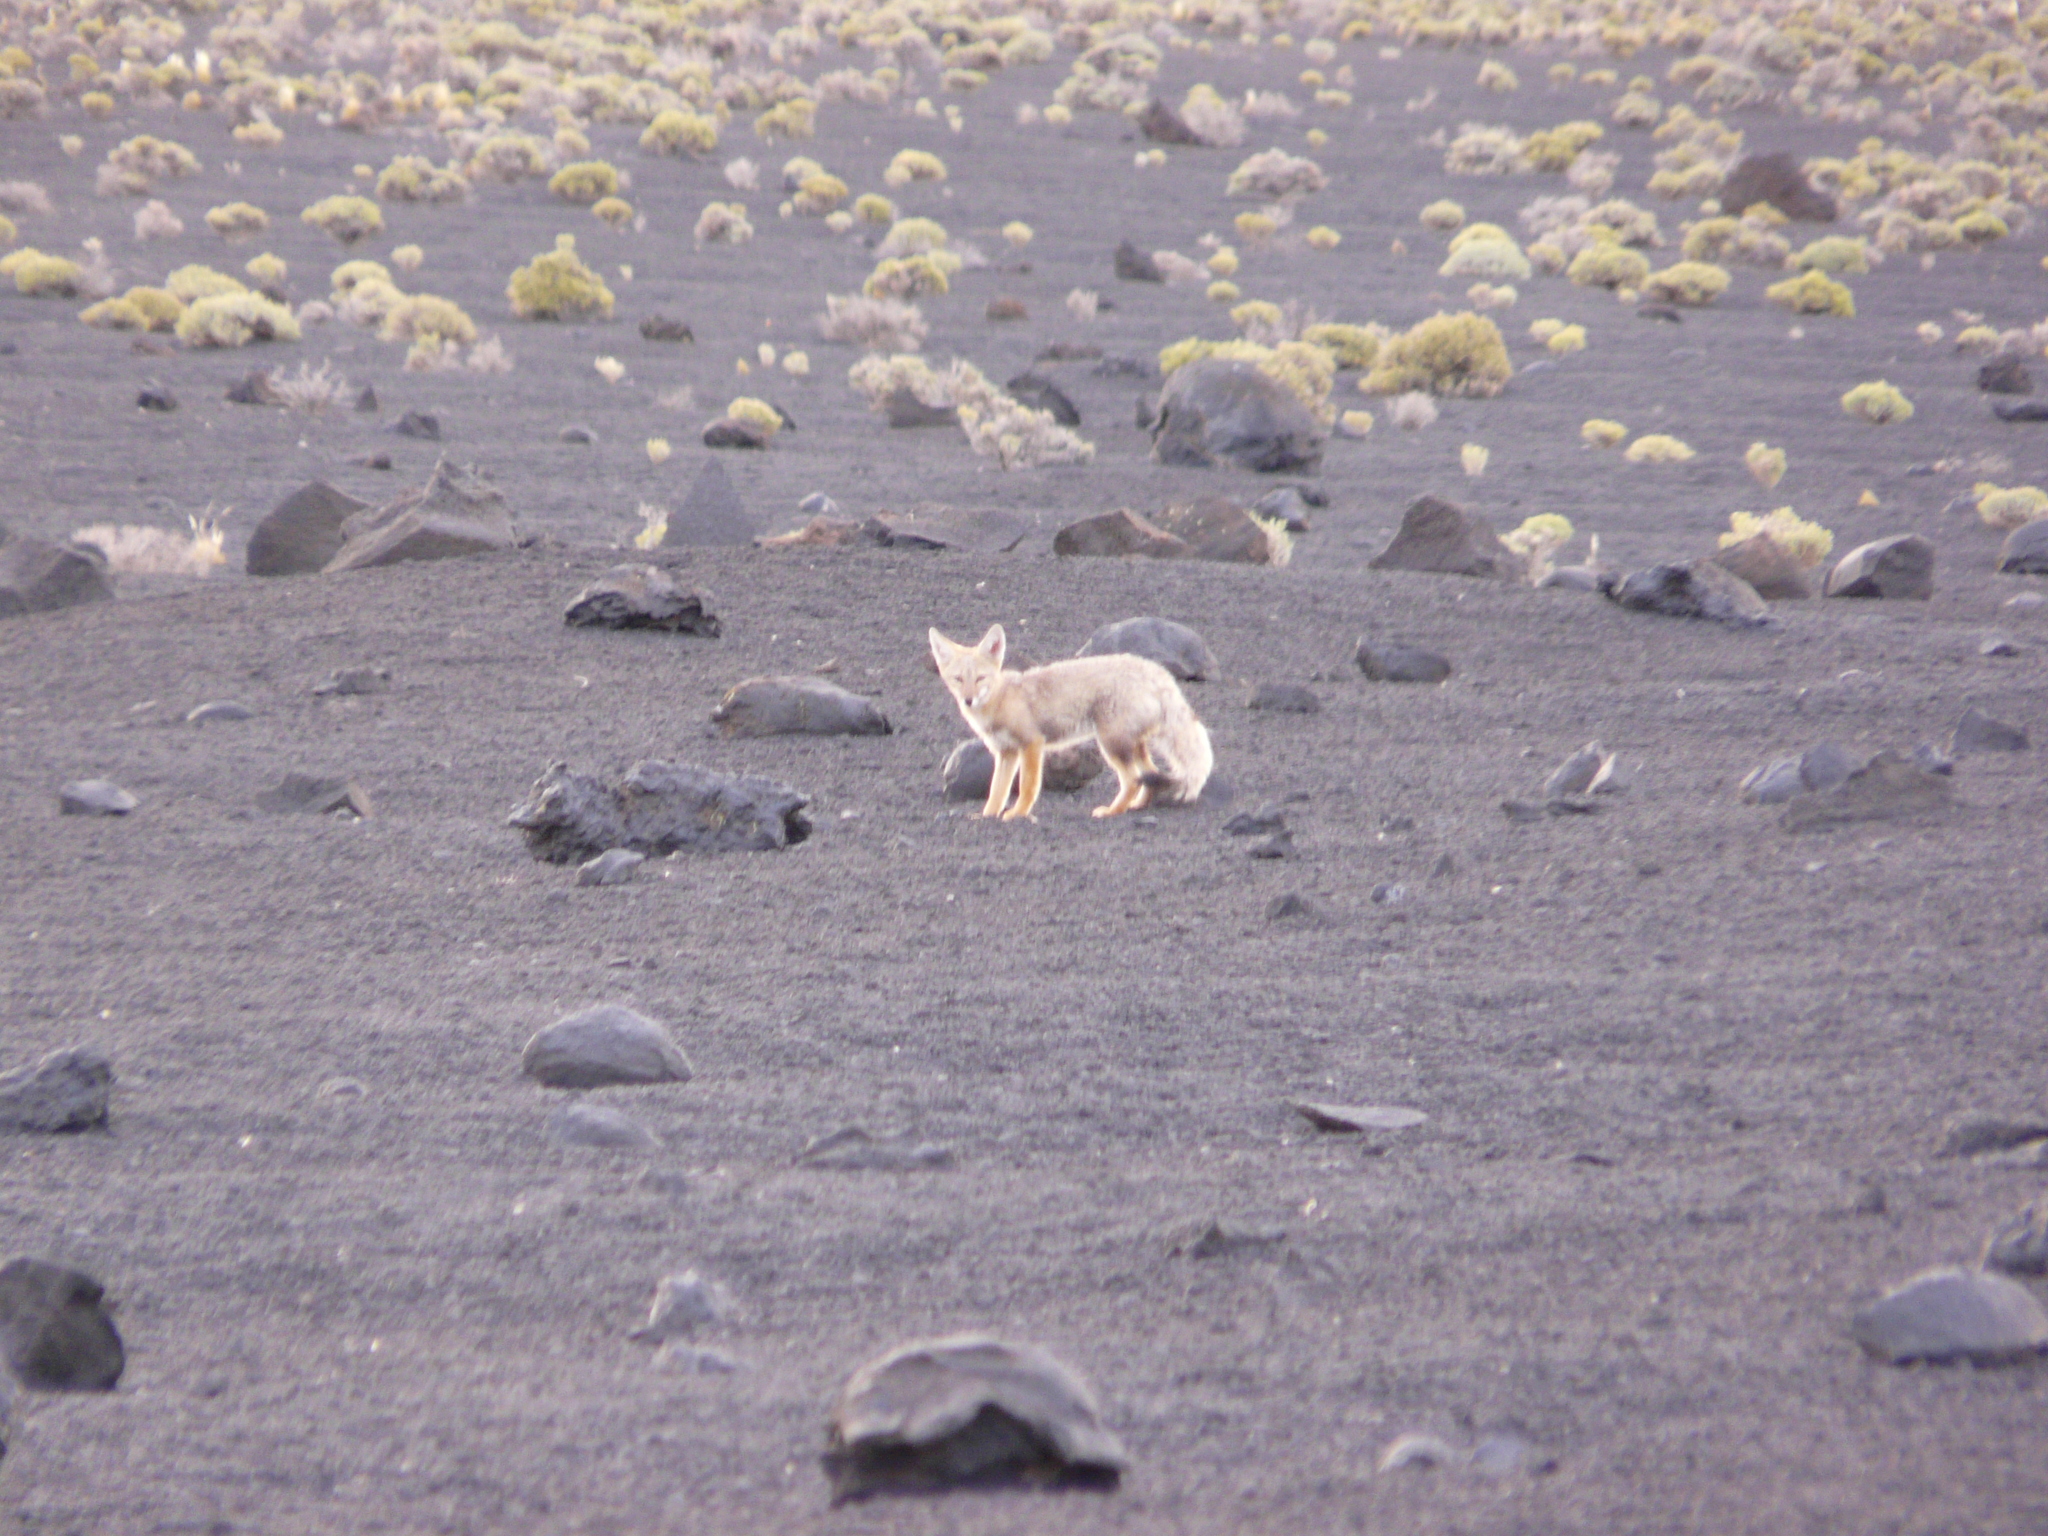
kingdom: Animalia
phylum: Chordata
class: Mammalia
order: Carnivora
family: Canidae
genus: Lycalopex
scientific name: Lycalopex gymnocercus
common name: Pampas fox
